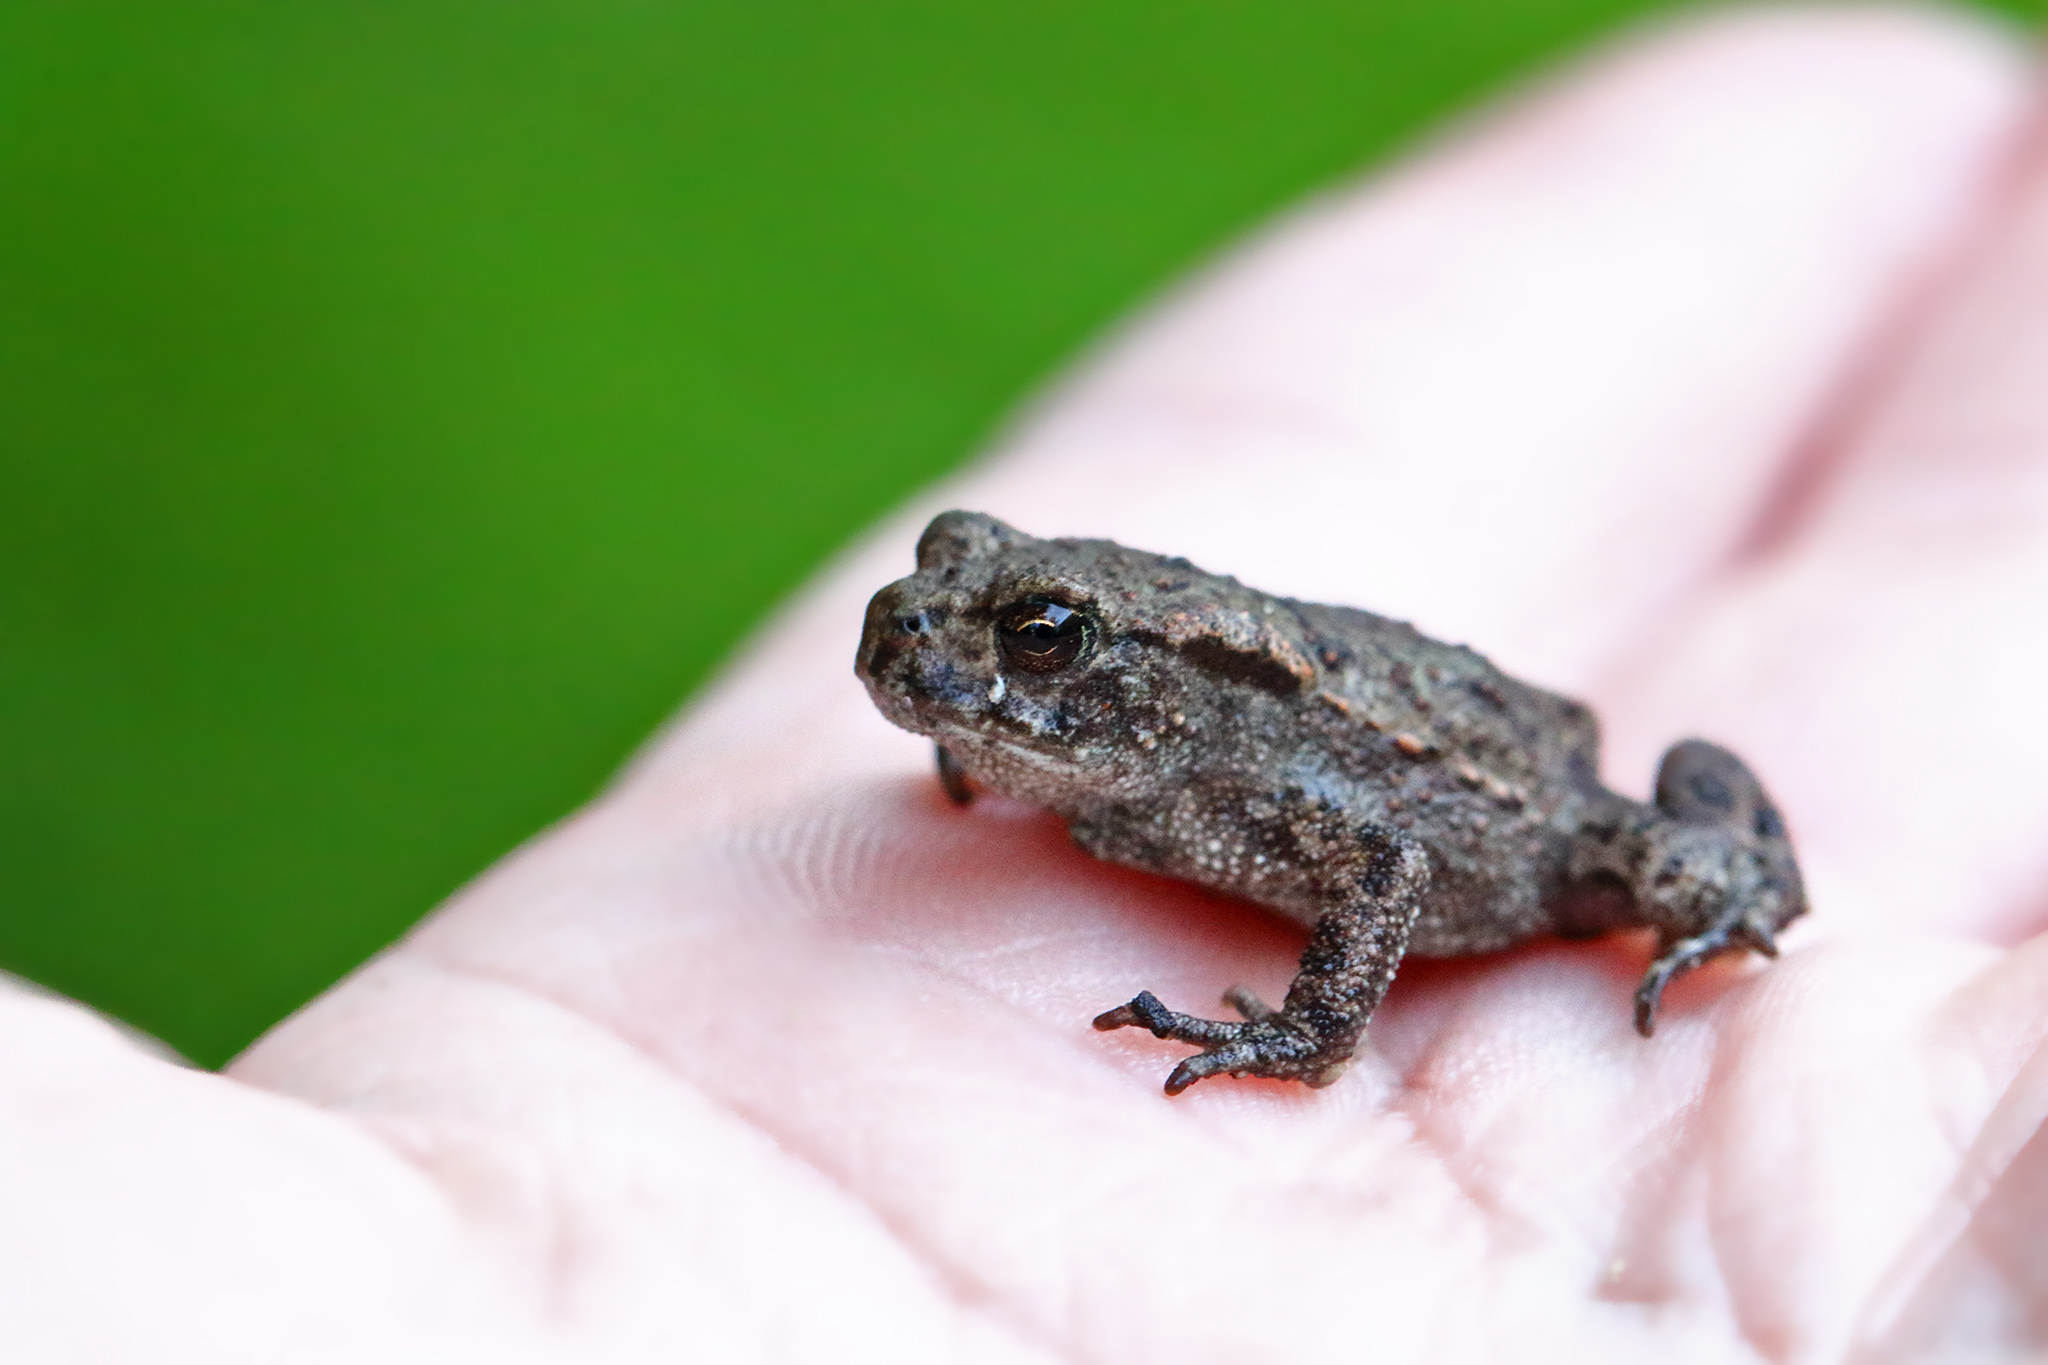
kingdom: Animalia
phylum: Chordata
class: Amphibia
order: Anura
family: Bufonidae
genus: Bufo
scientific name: Bufo bufo
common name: Common toad
